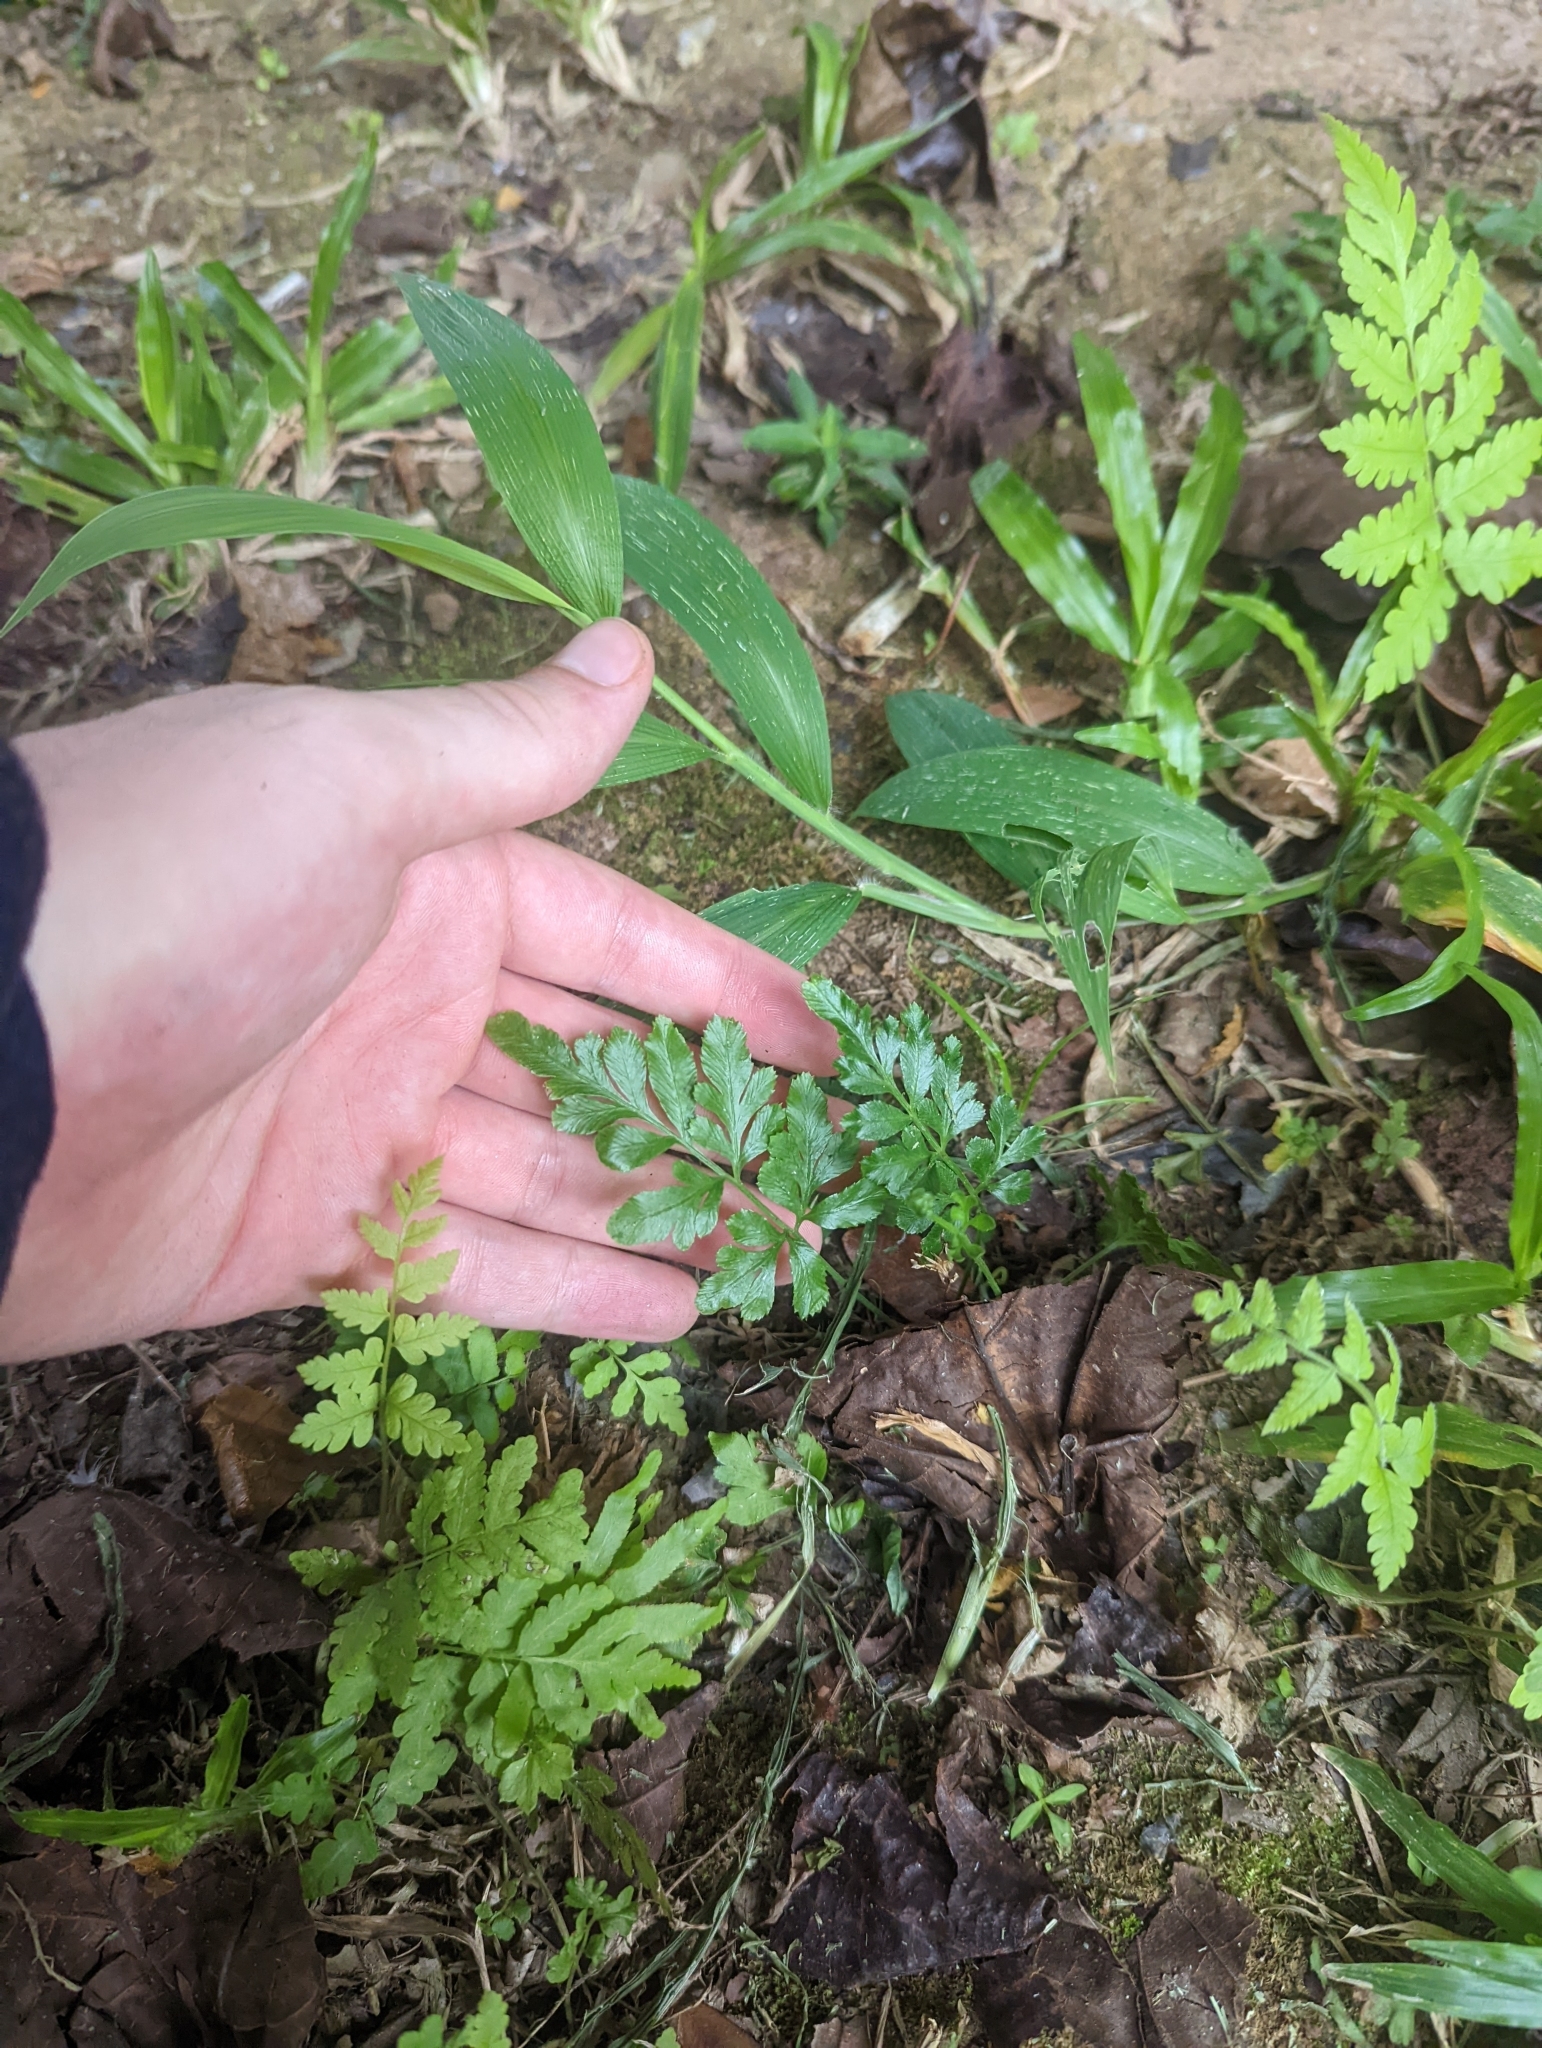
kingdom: Plantae
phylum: Tracheophyta
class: Polypodiopsida
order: Polypodiales
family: Pteridaceae
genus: Pteris
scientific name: Pteris ensiformis
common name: Sword brake
